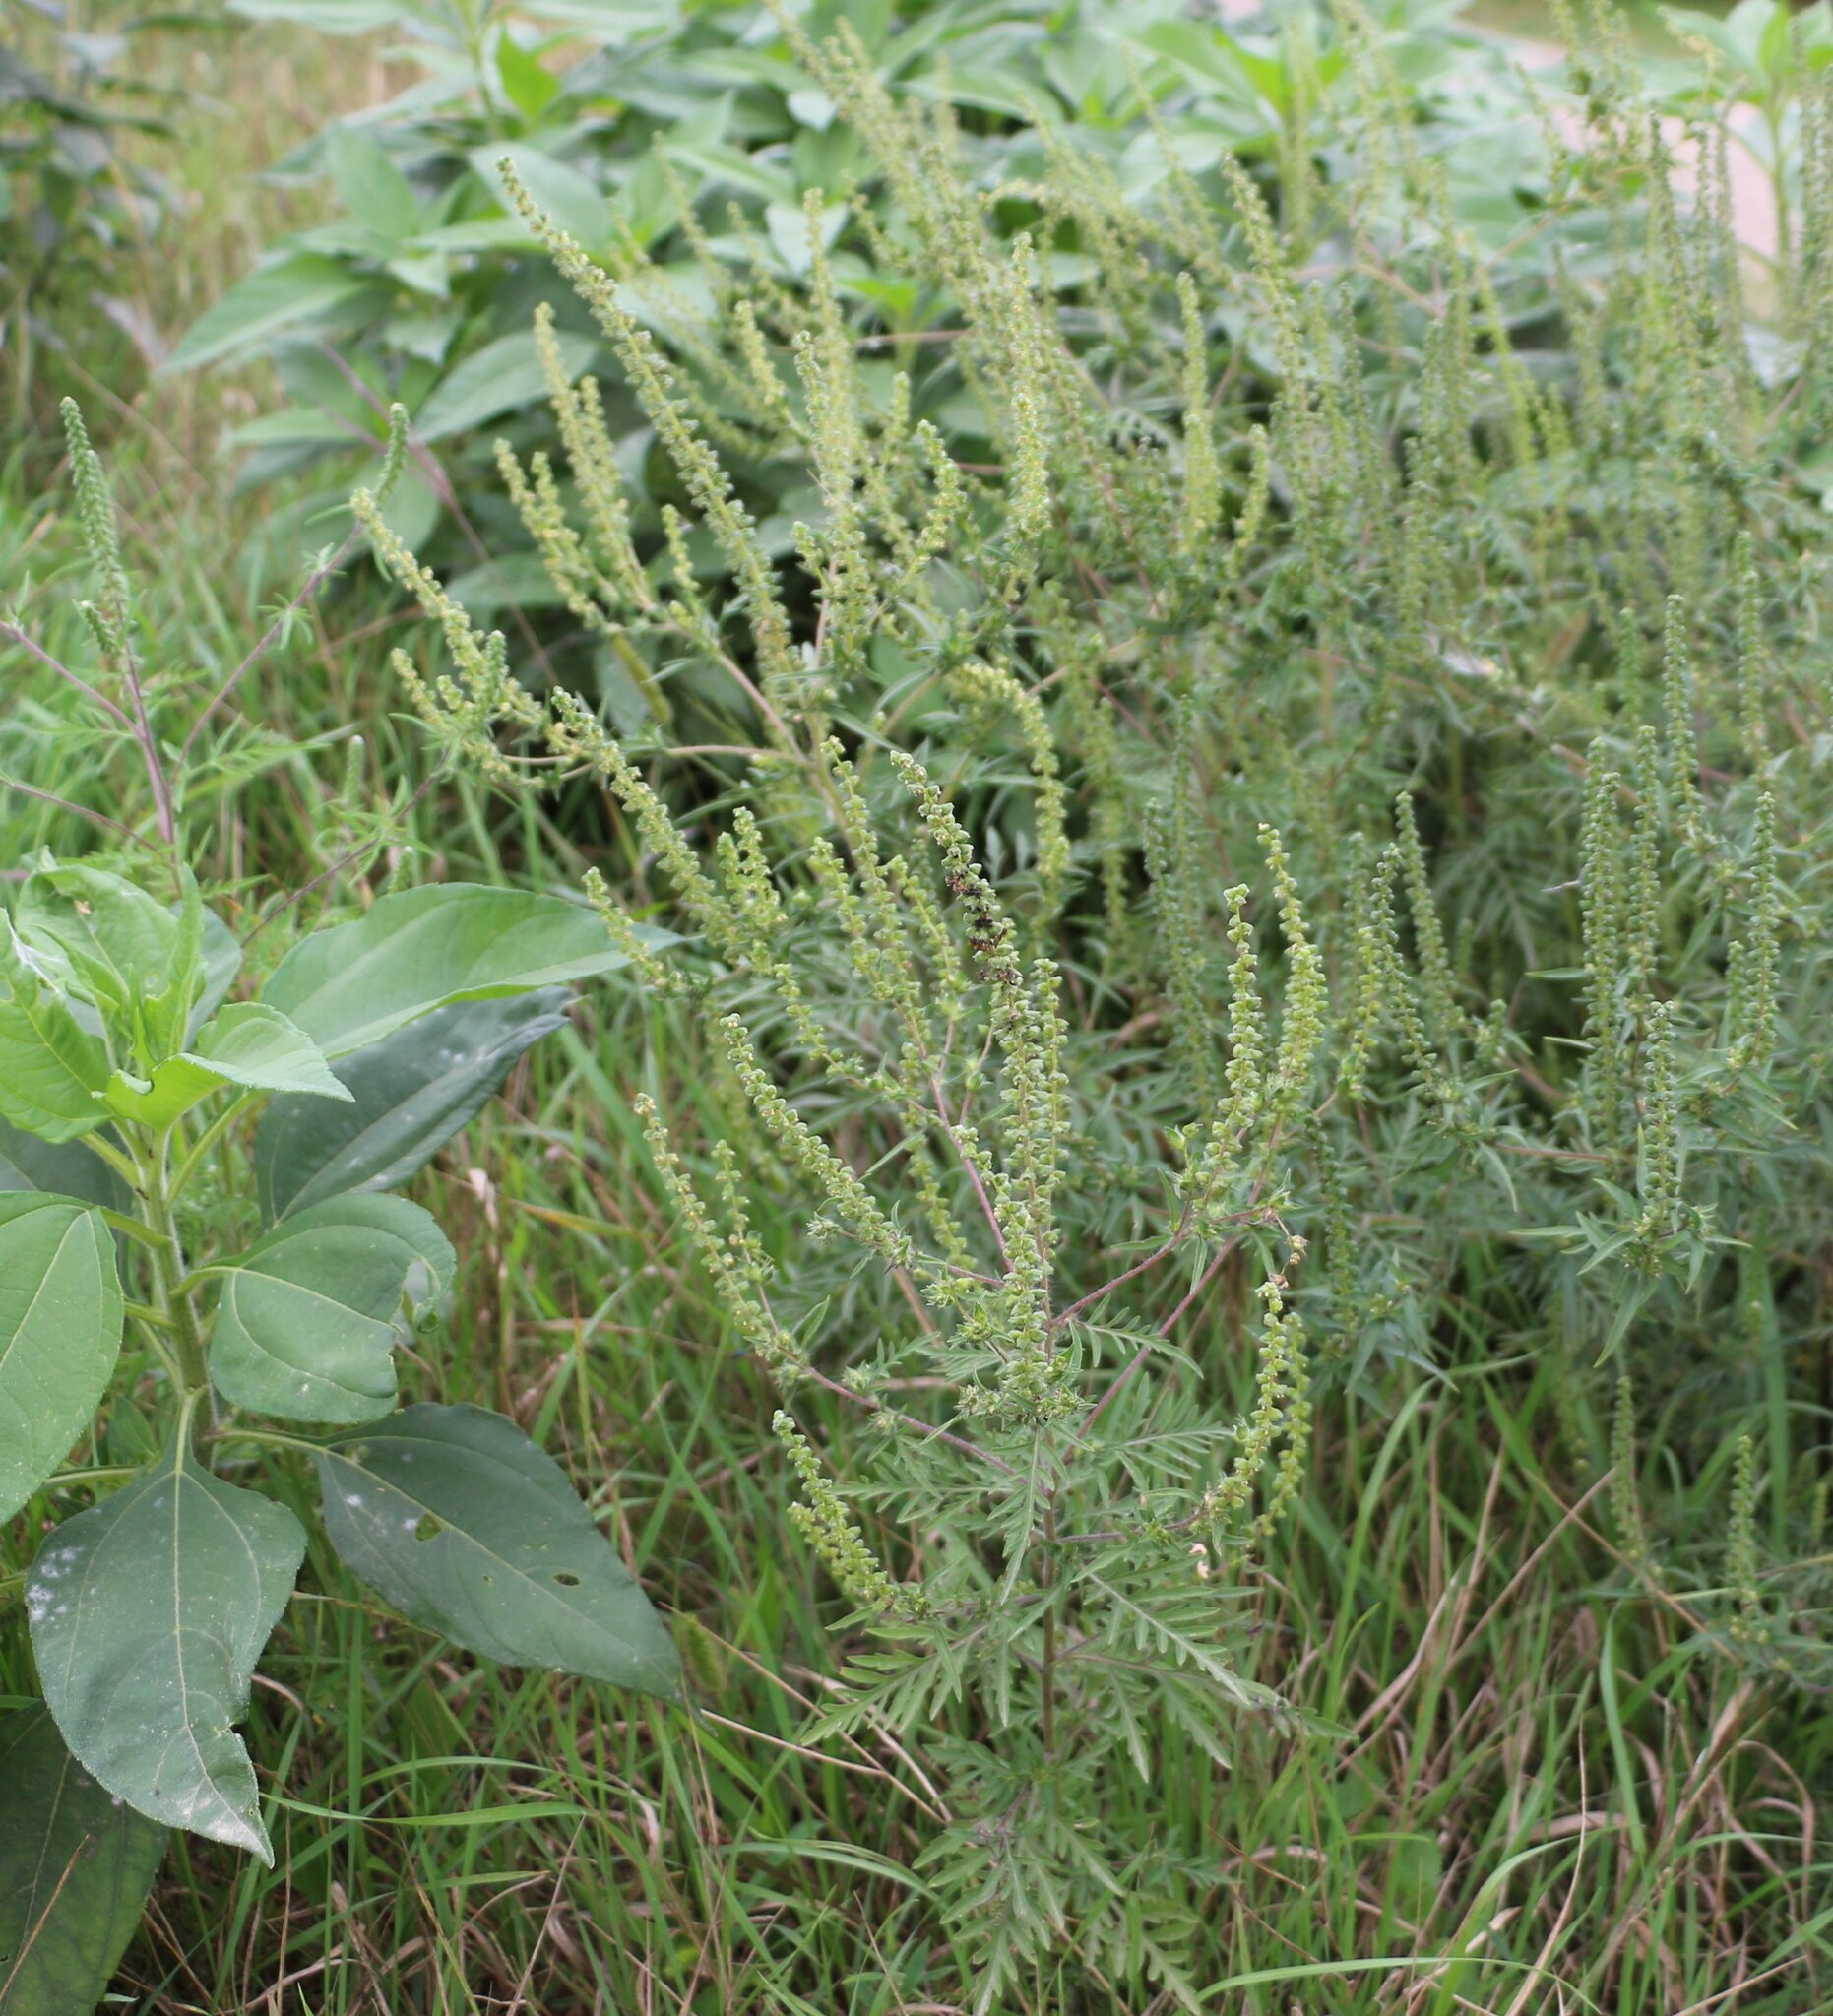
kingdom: Plantae
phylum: Tracheophyta
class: Magnoliopsida
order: Asterales
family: Asteraceae
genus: Ambrosia
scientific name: Ambrosia artemisiifolia
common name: Annual ragweed
